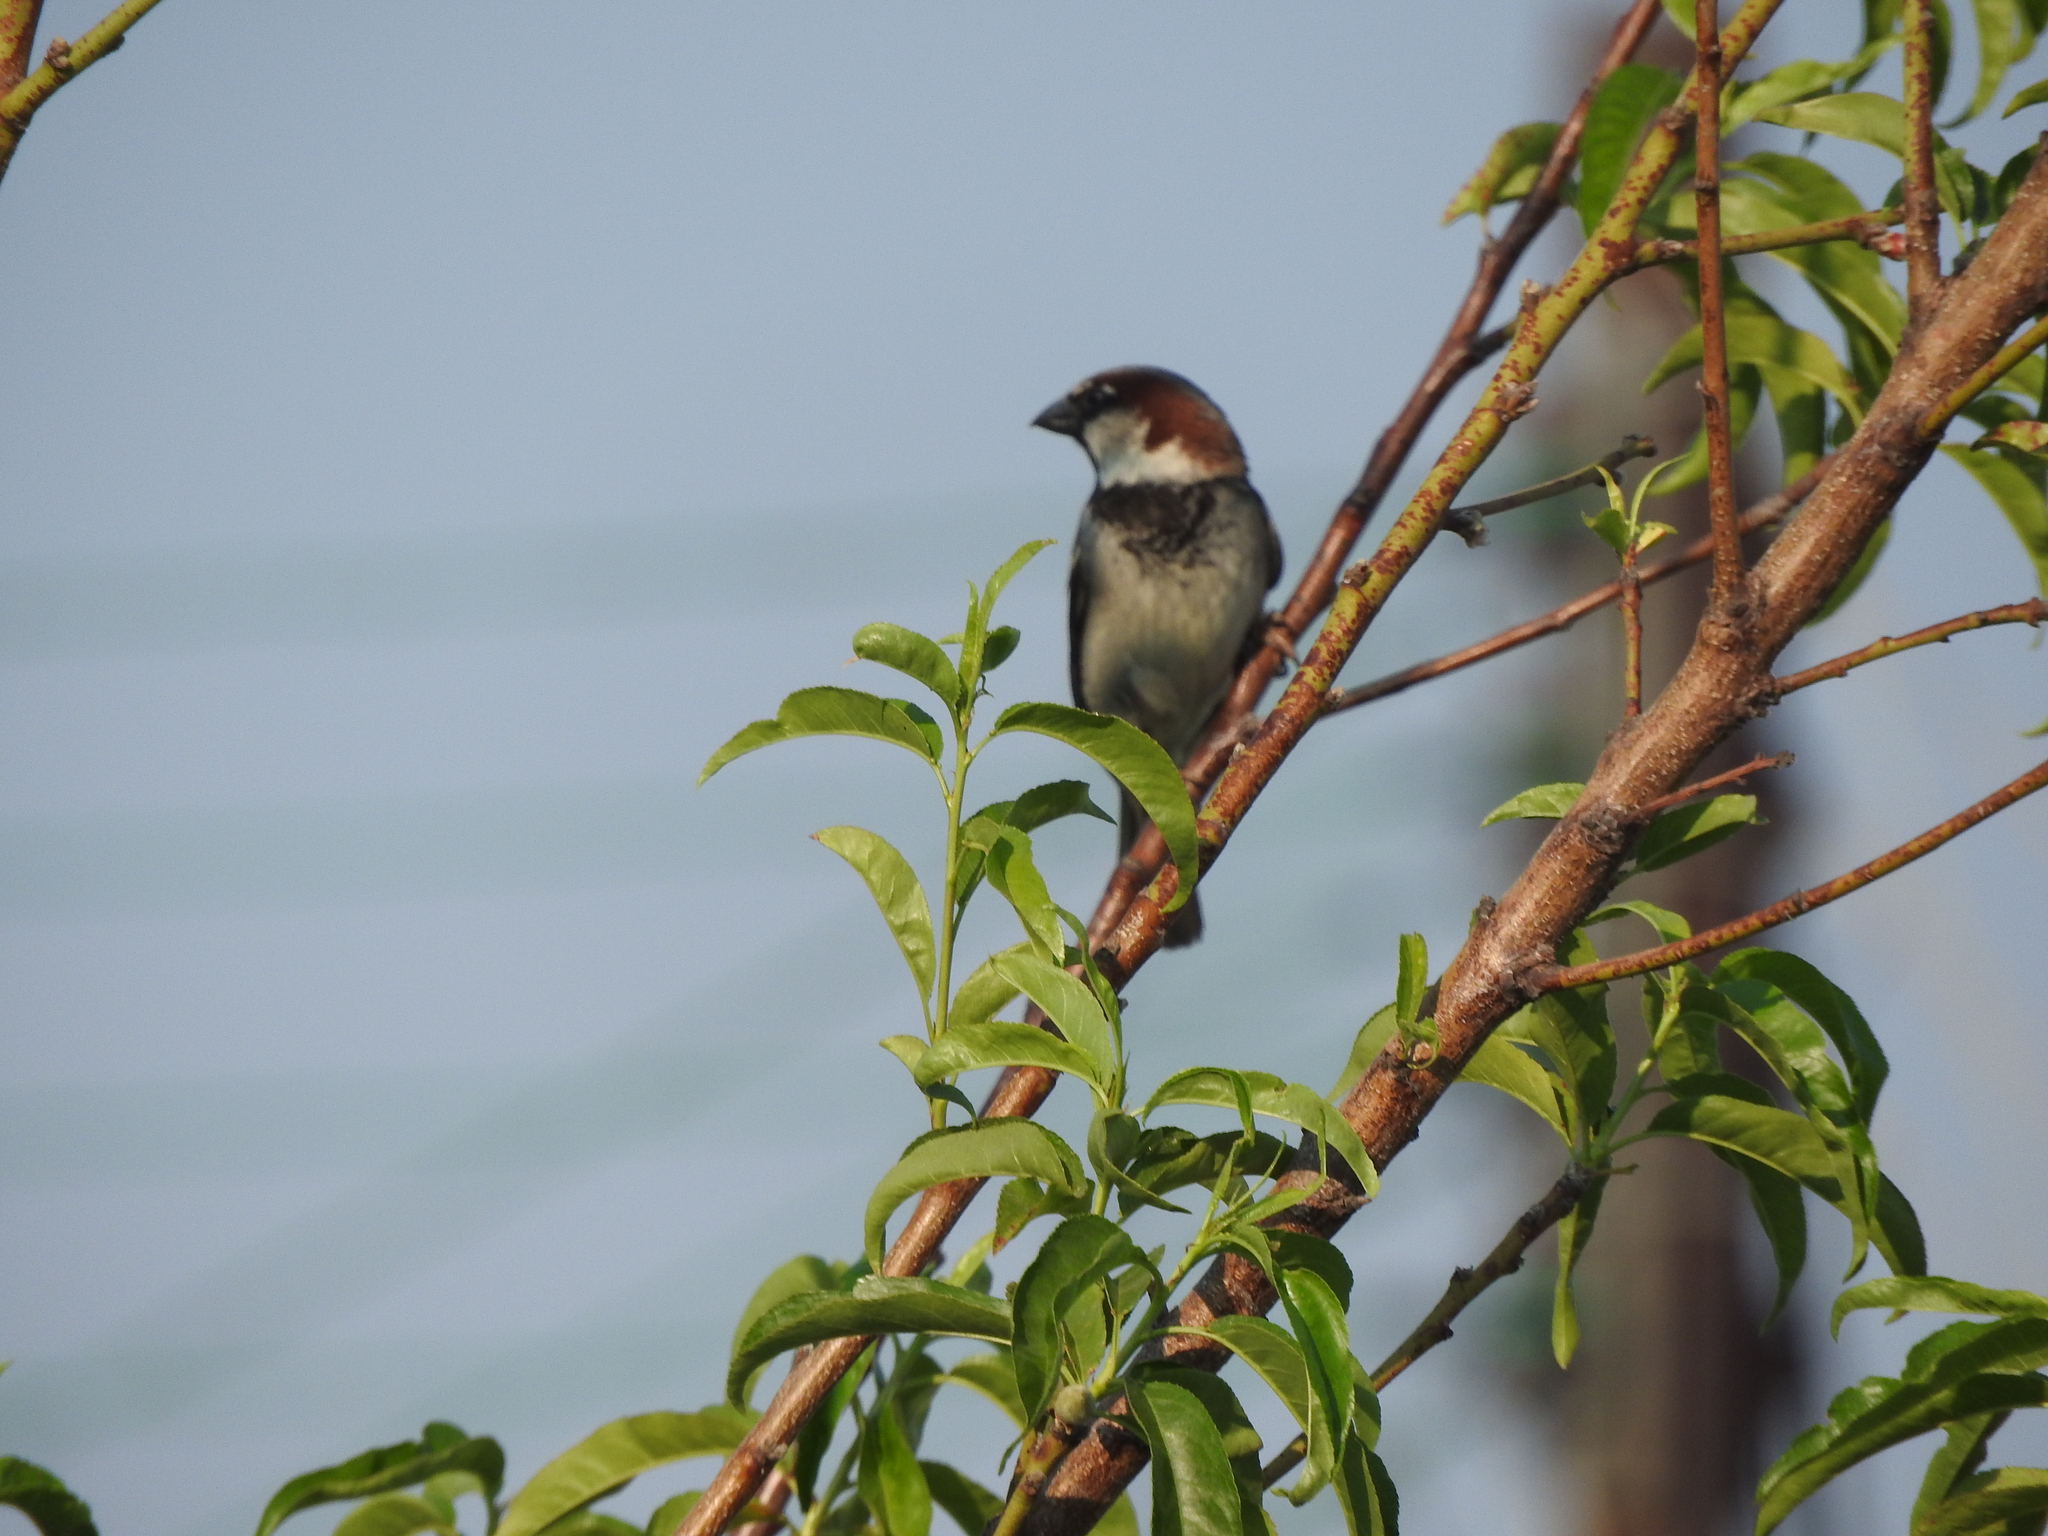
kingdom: Animalia
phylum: Chordata
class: Aves
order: Passeriformes
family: Passeridae
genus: Passer
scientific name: Passer domesticus
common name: House sparrow
